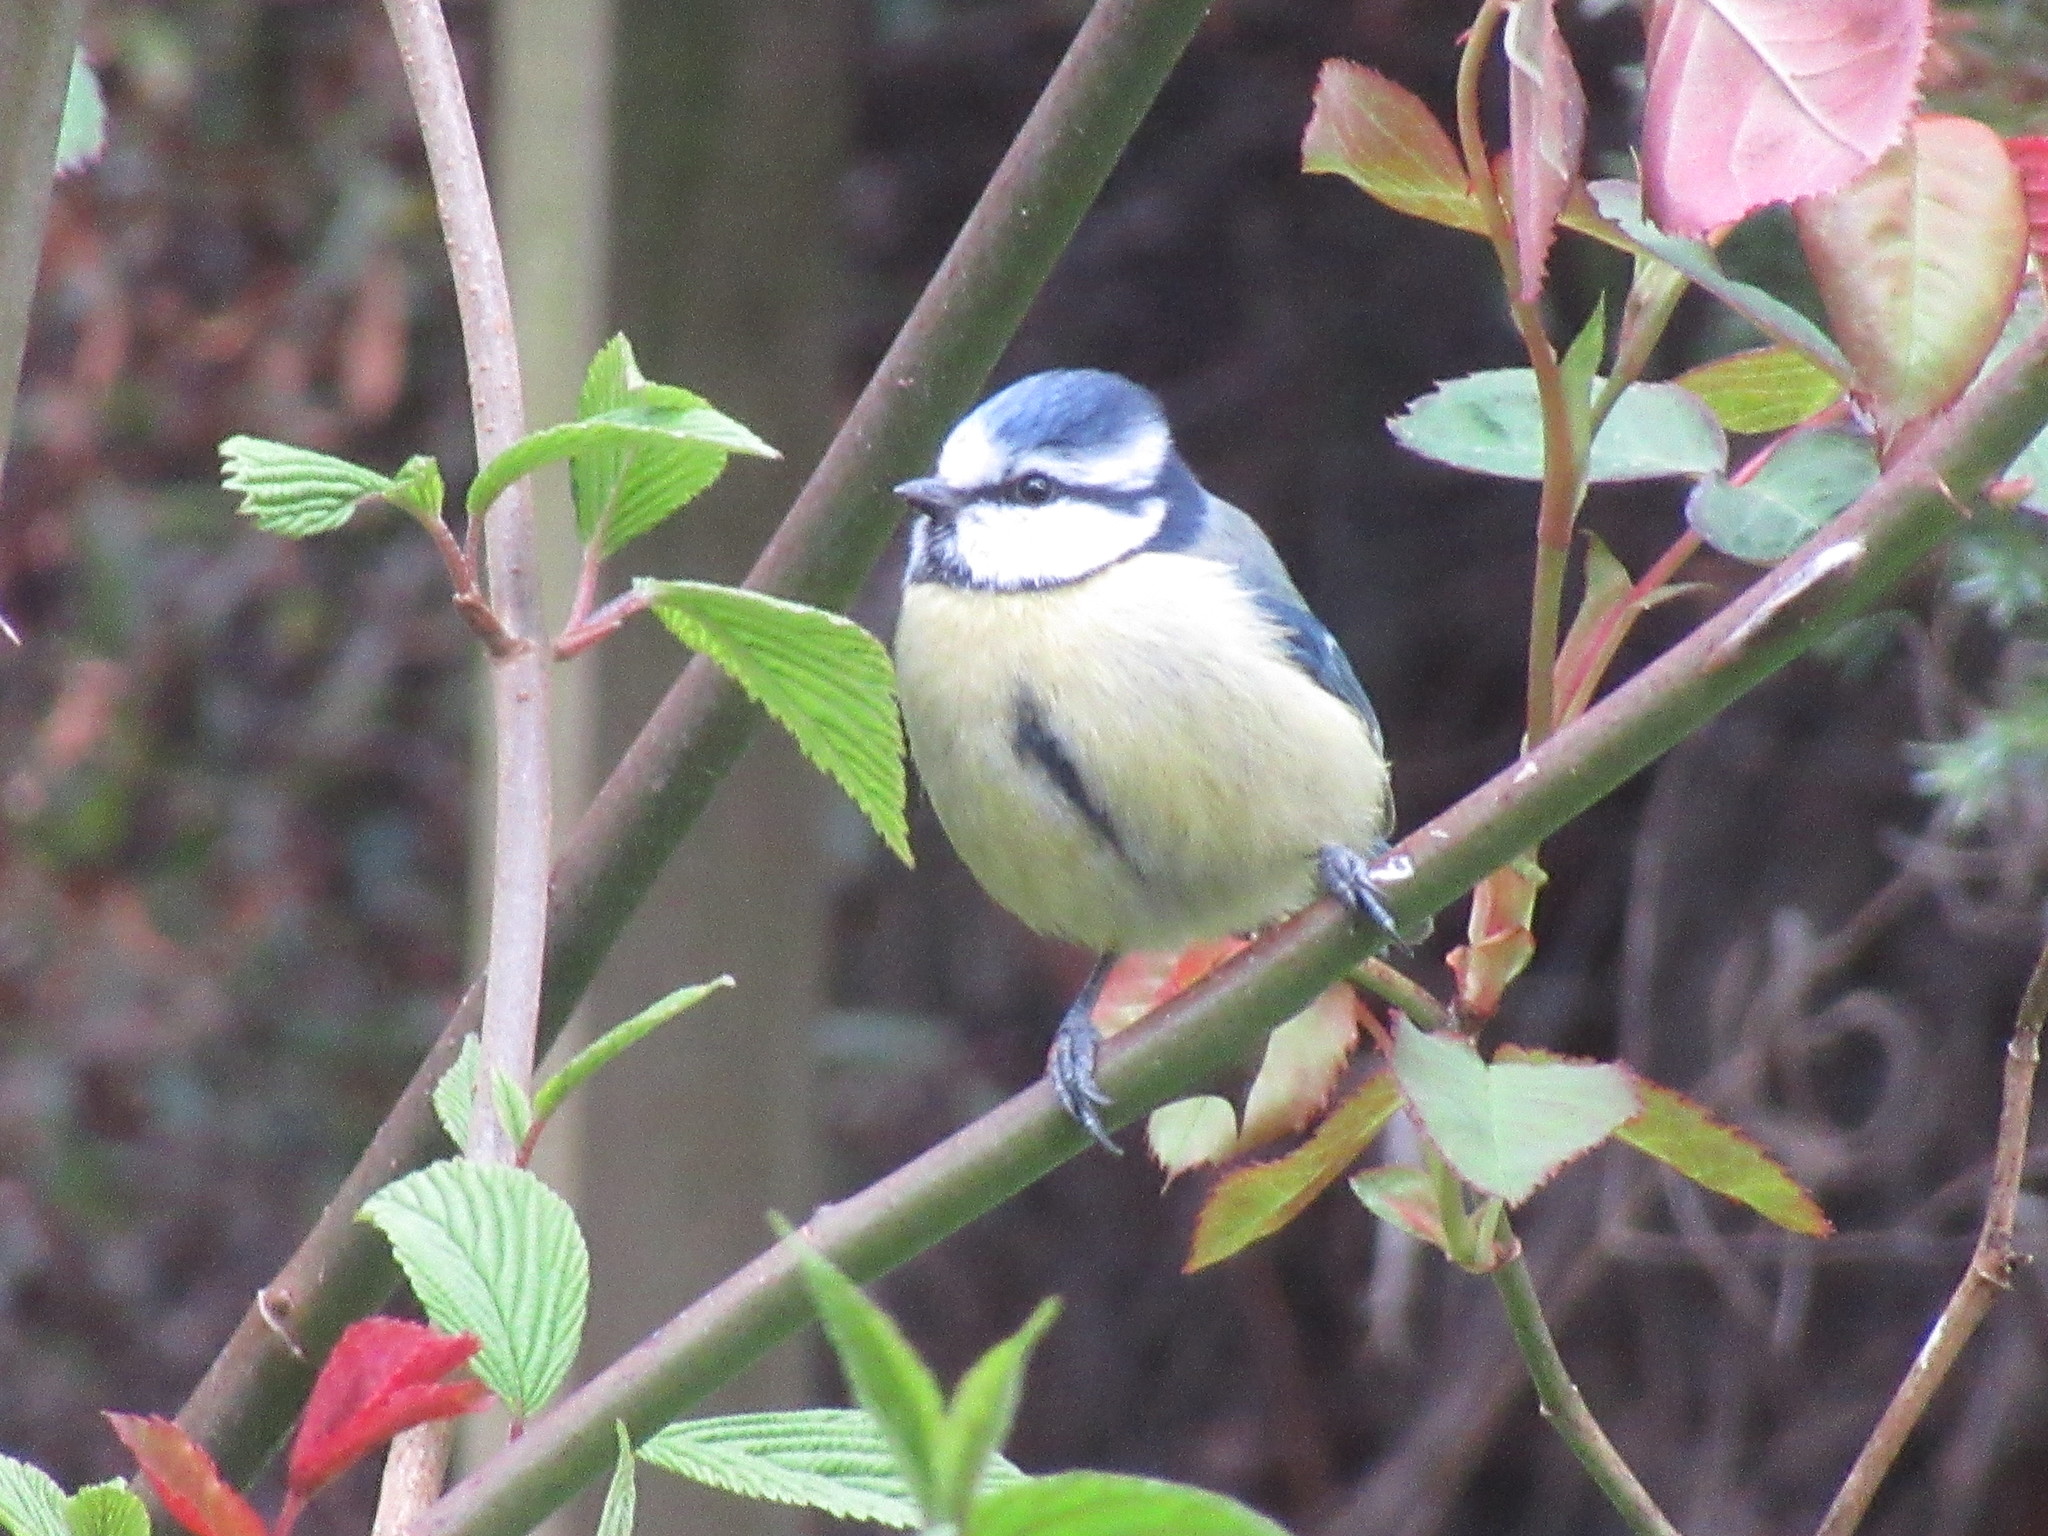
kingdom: Animalia
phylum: Chordata
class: Aves
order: Passeriformes
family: Paridae
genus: Cyanistes
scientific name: Cyanistes caeruleus
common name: Eurasian blue tit
